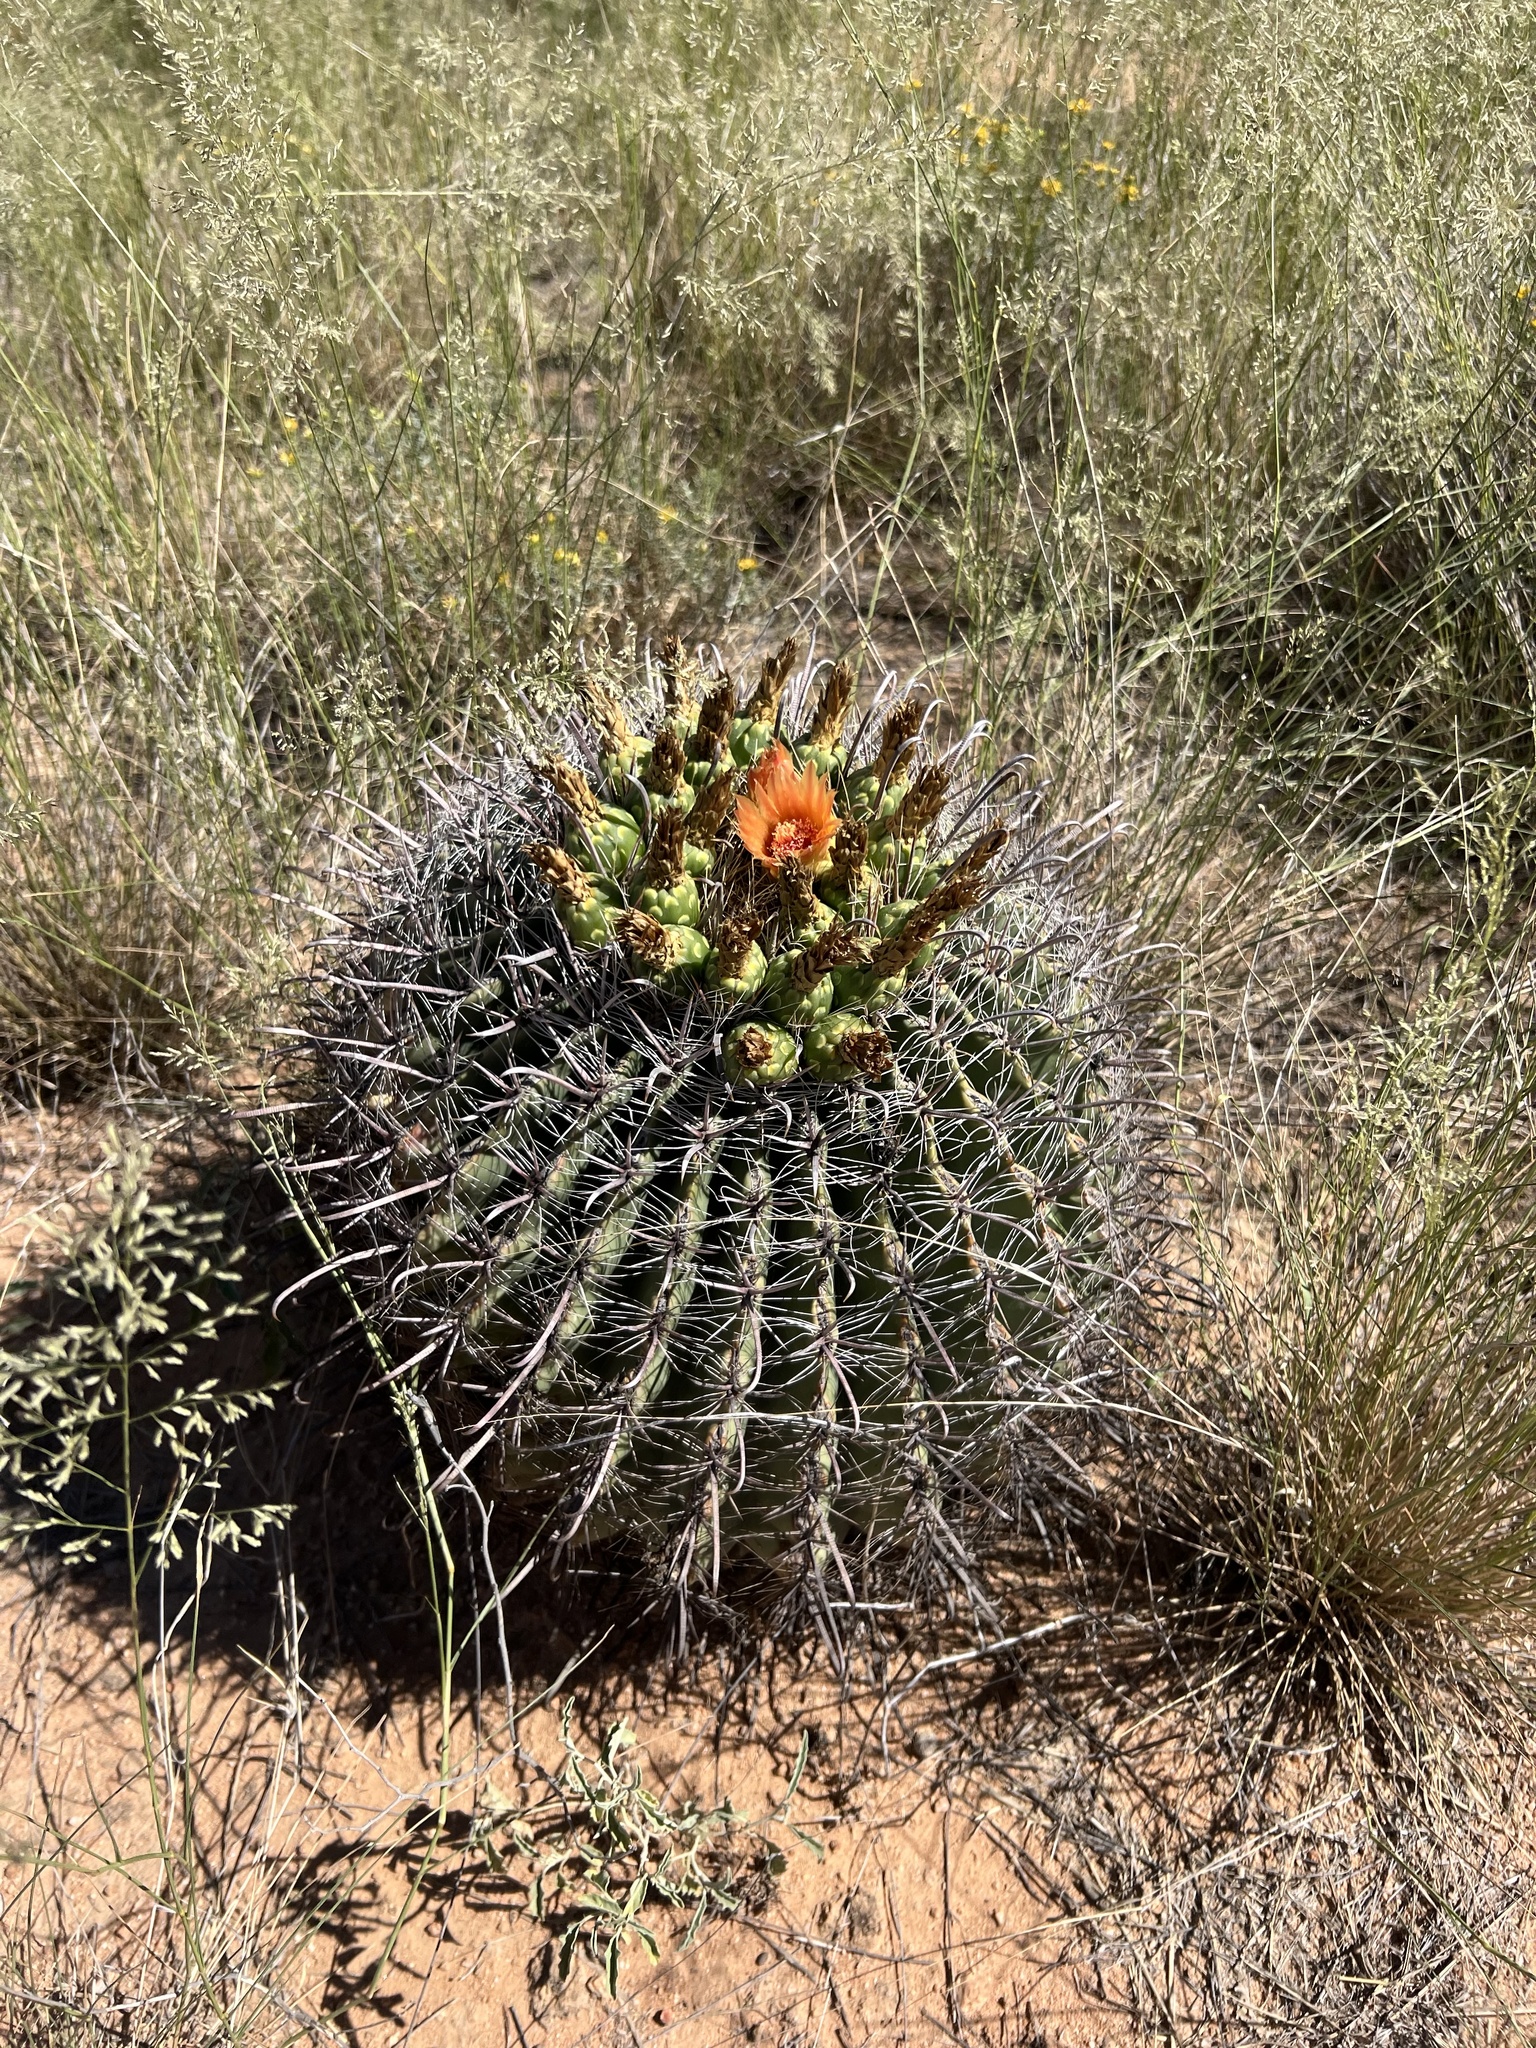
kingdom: Plantae
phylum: Tracheophyta
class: Magnoliopsida
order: Caryophyllales
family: Cactaceae
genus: Ferocactus
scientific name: Ferocactus wislizeni
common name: Candy barrel cactus
